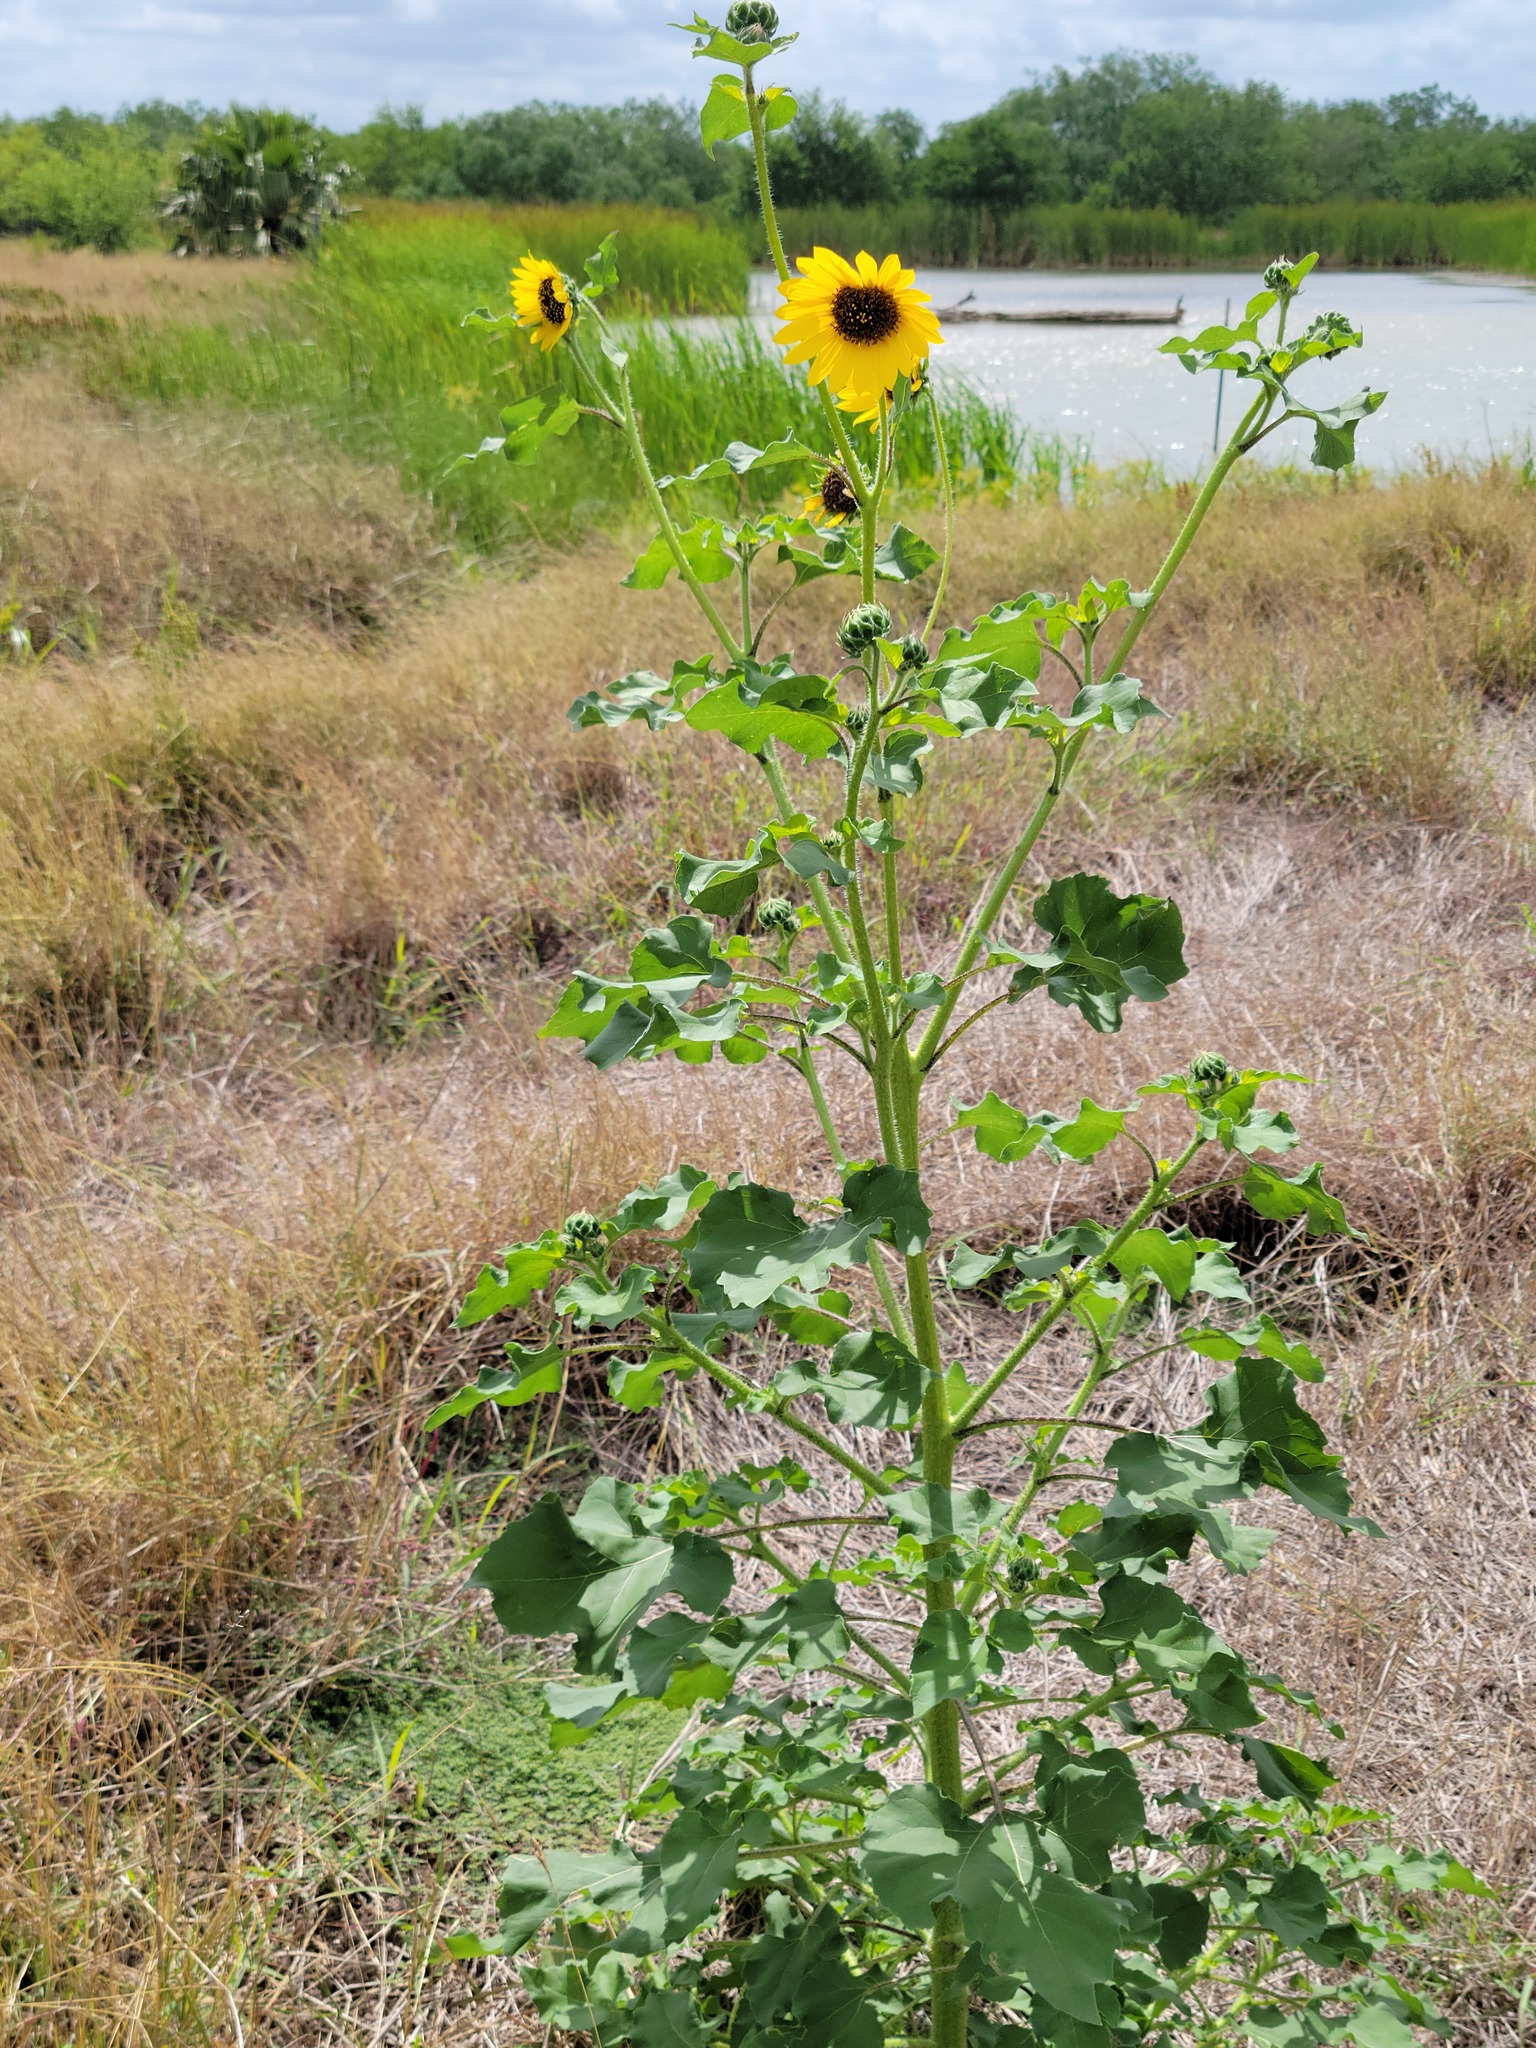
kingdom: Plantae
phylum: Tracheophyta
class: Magnoliopsida
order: Asterales
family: Asteraceae
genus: Helianthus
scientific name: Helianthus annuus
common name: Sunflower
